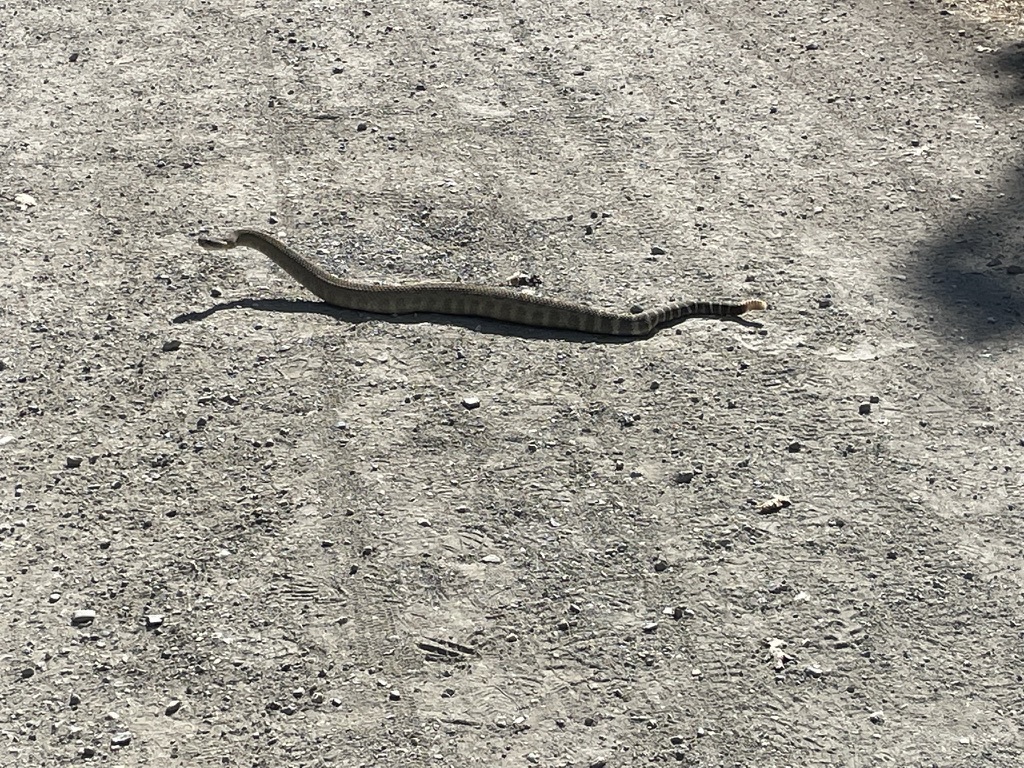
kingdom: Animalia
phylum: Chordata
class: Squamata
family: Viperidae
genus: Crotalus
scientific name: Crotalus oreganus
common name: Abyssus
